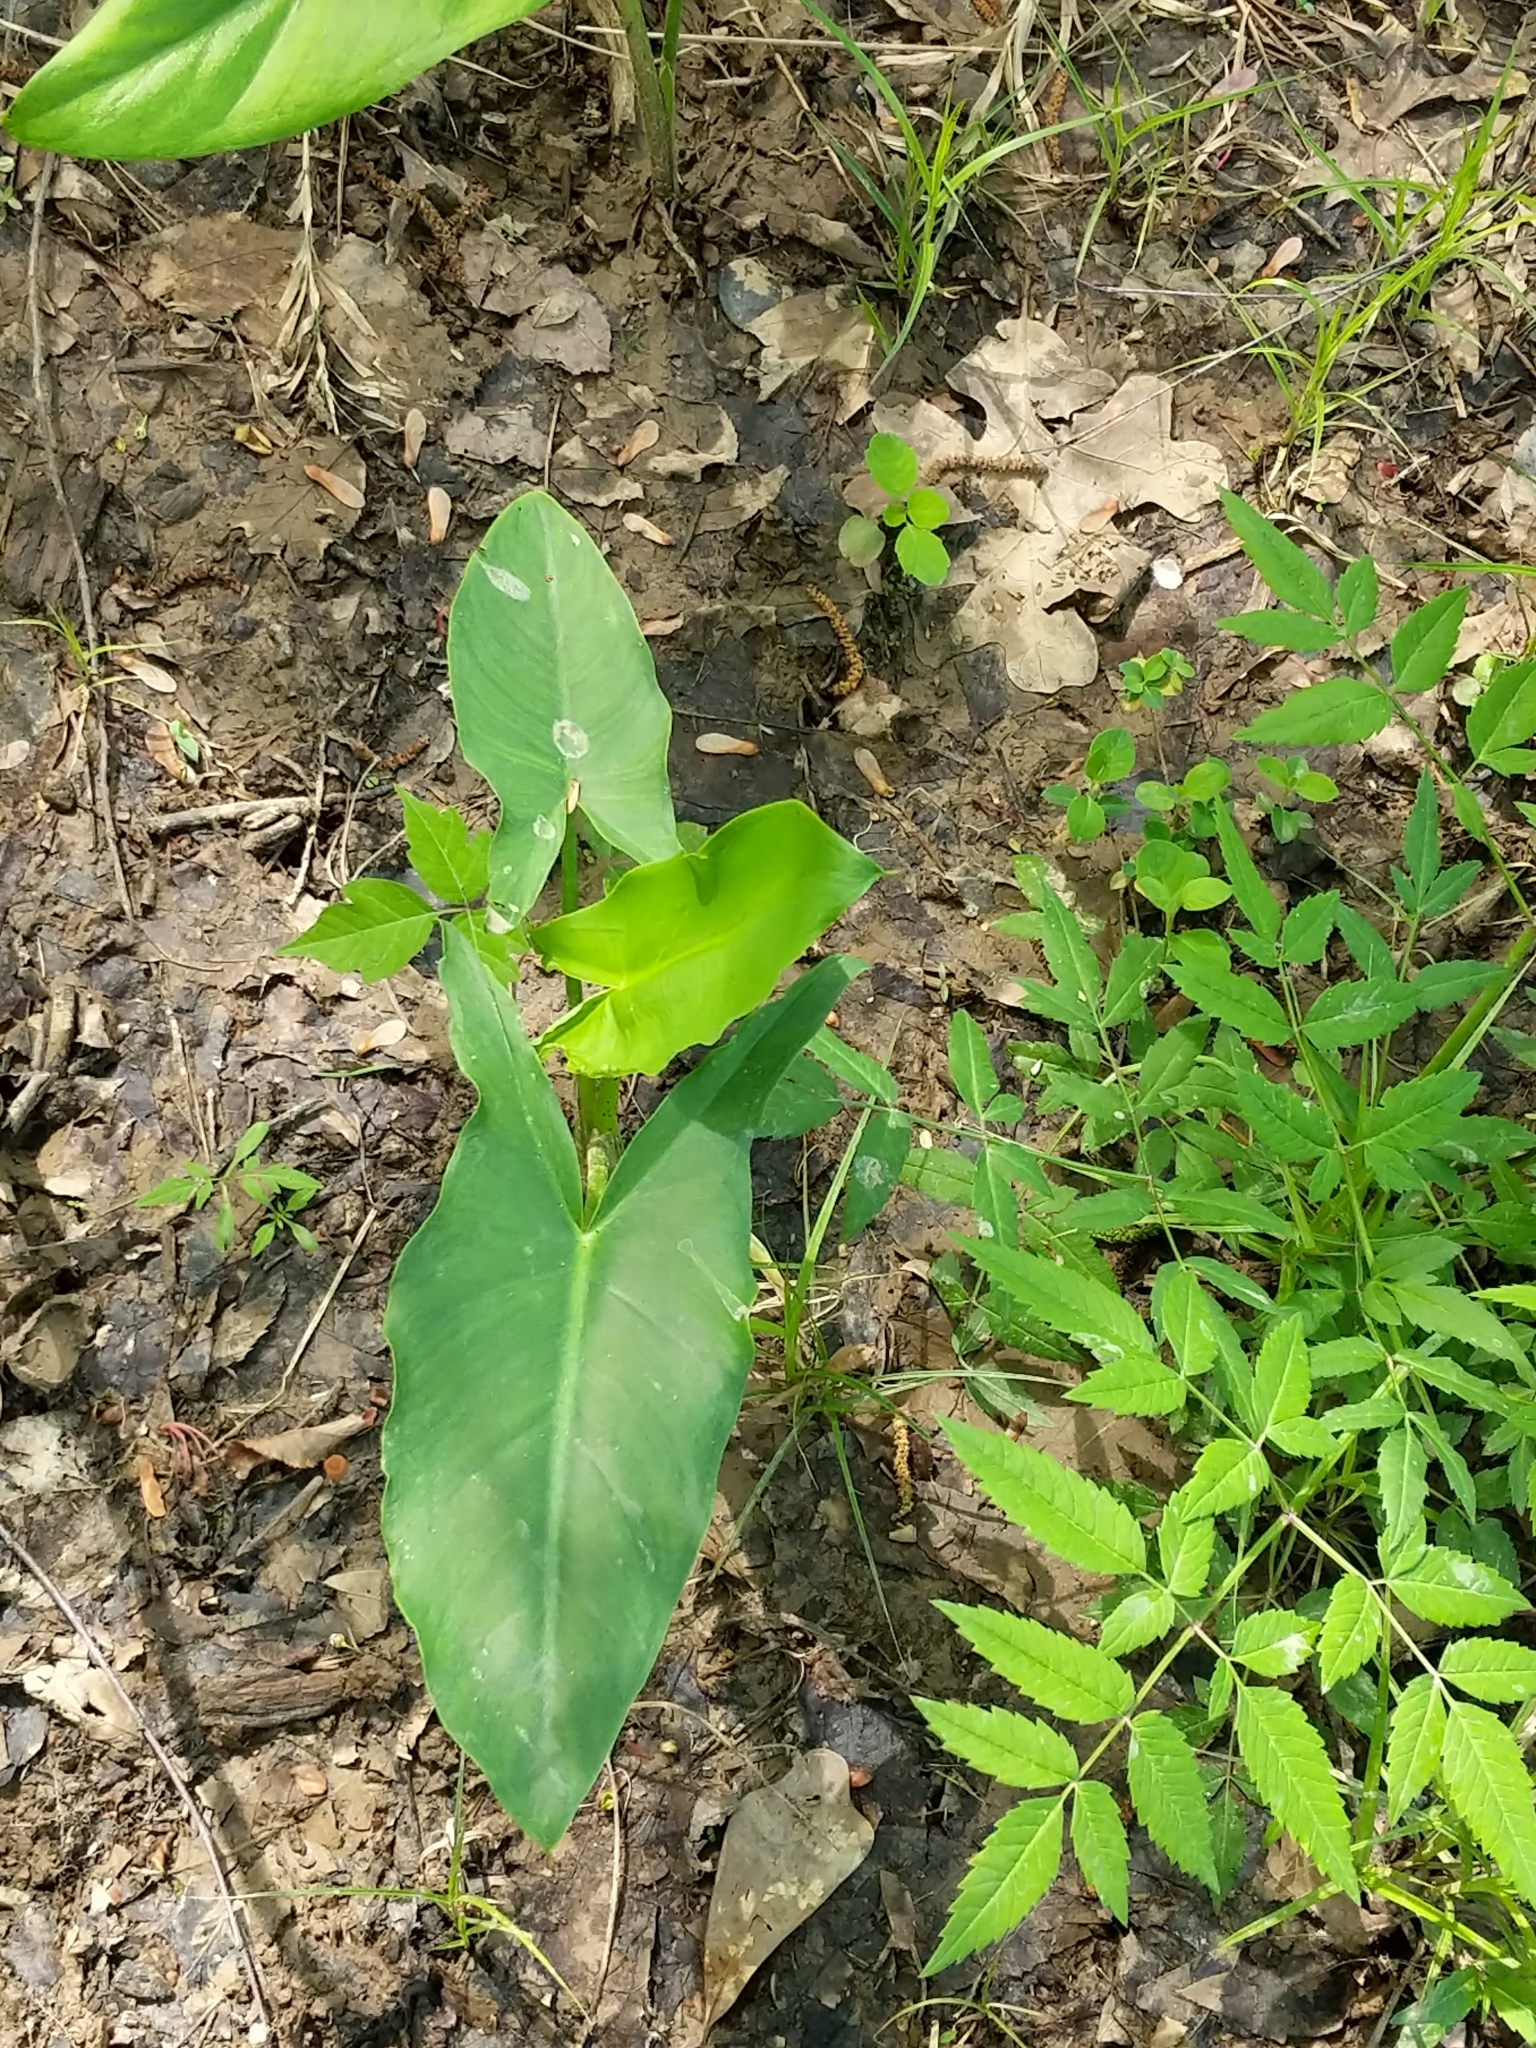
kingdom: Plantae
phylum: Tracheophyta
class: Liliopsida
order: Alismatales
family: Araceae
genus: Peltandra
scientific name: Peltandra virginica
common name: Arrow arum
